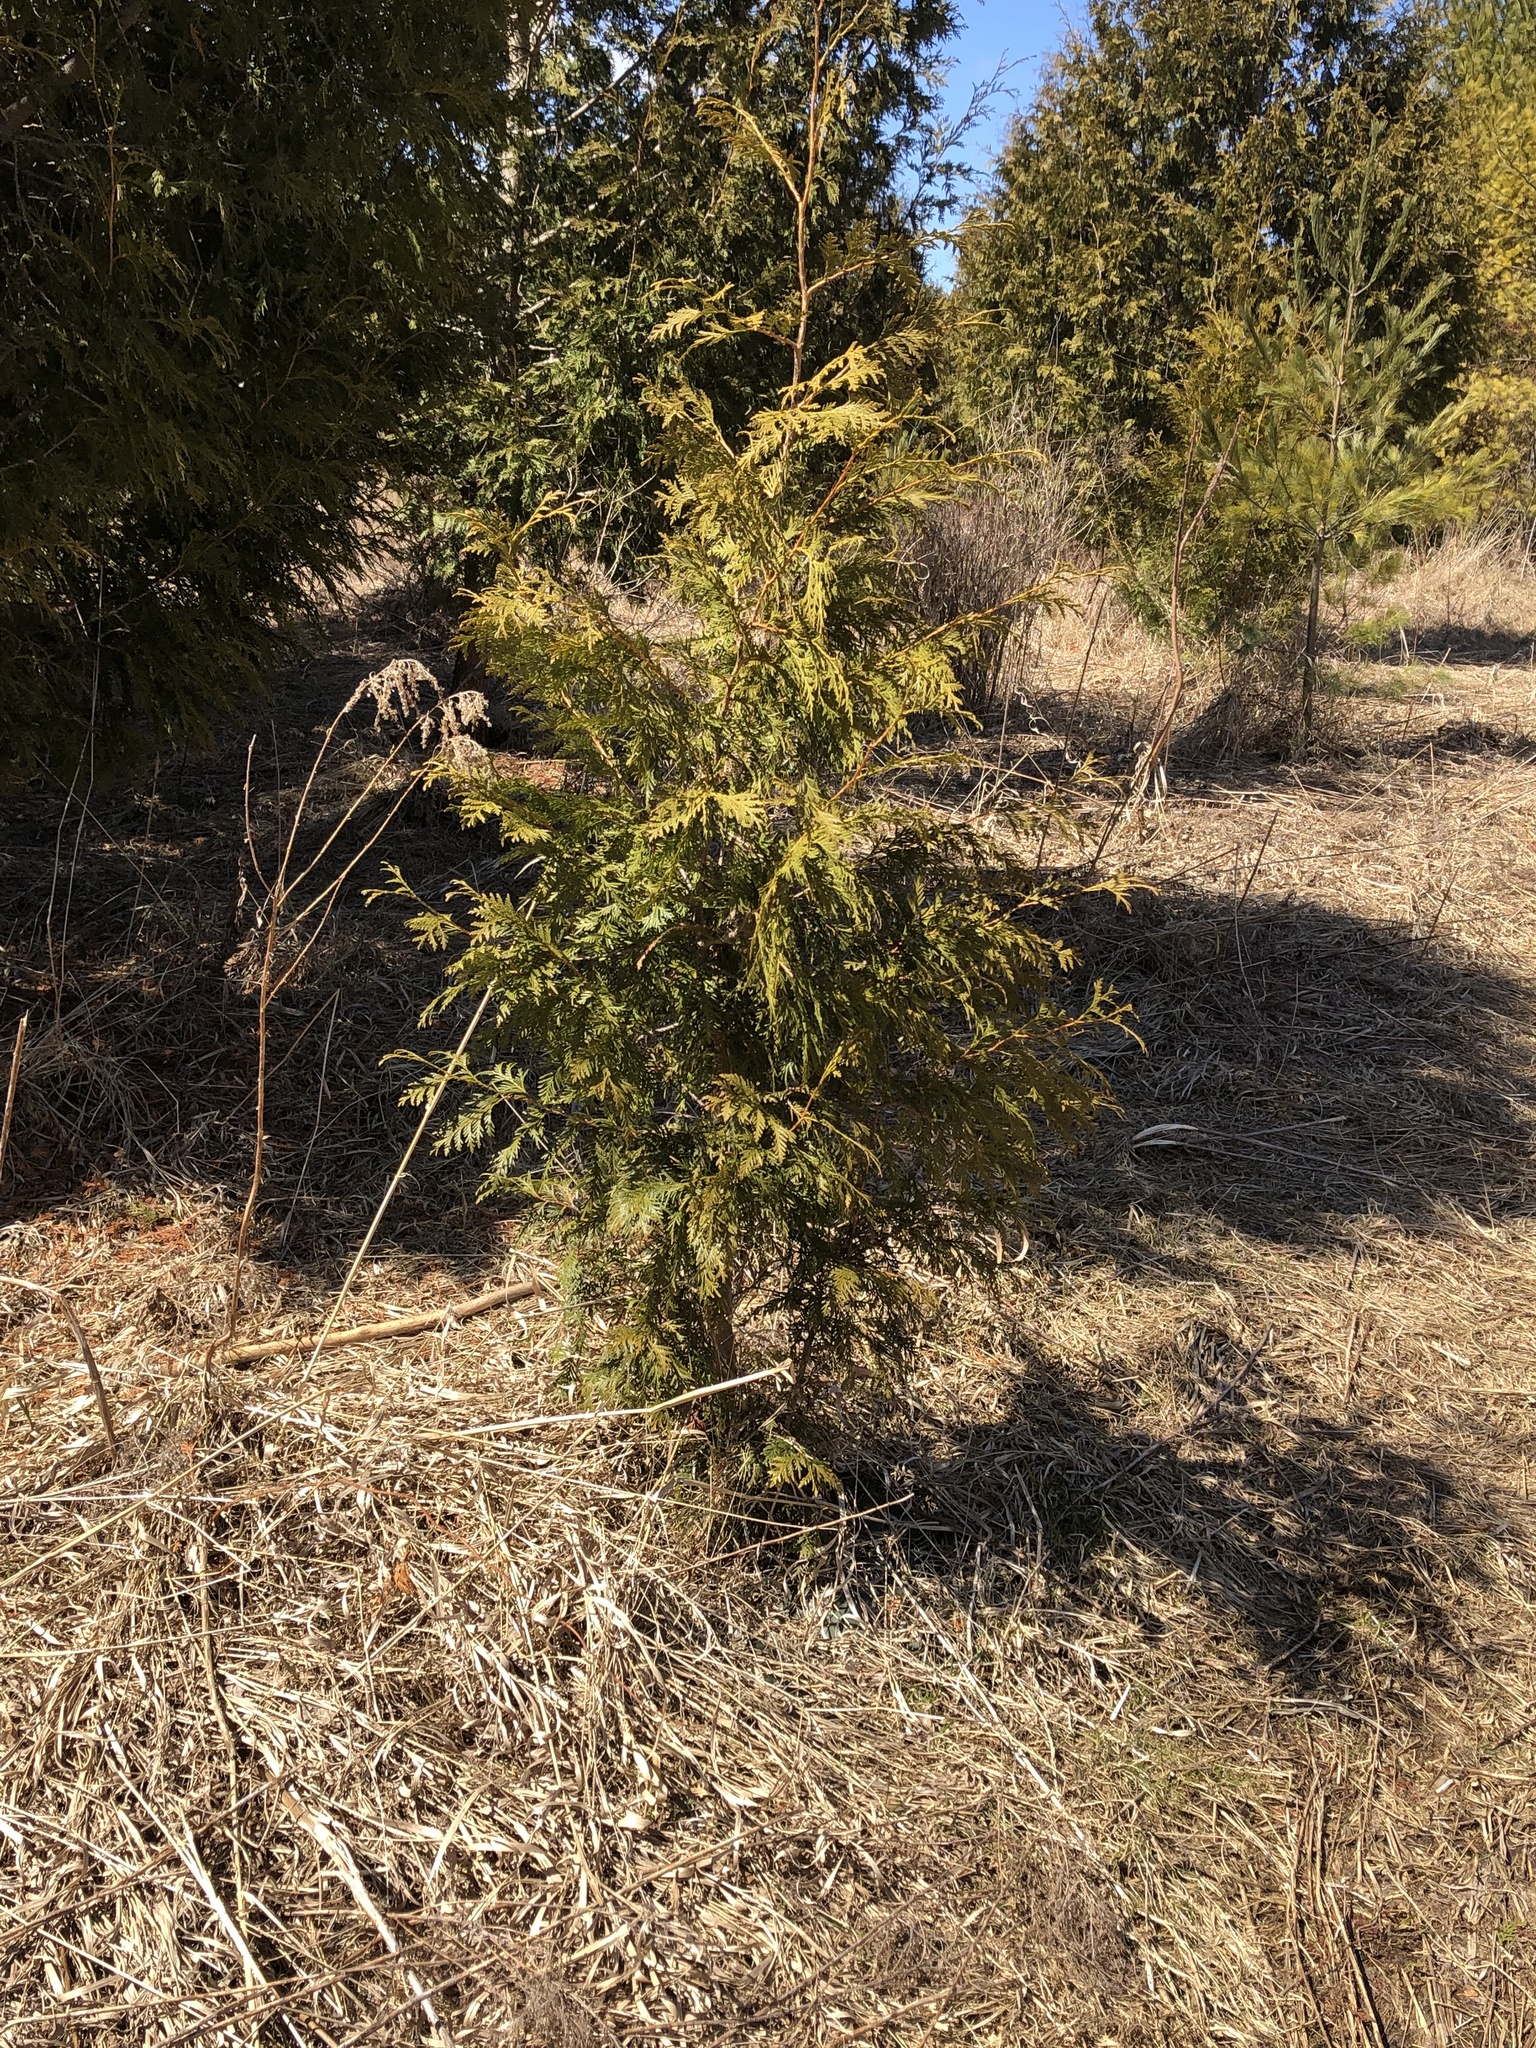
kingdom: Plantae
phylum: Tracheophyta
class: Pinopsida
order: Pinales
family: Cupressaceae
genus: Thuja
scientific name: Thuja occidentalis
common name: Northern white-cedar
